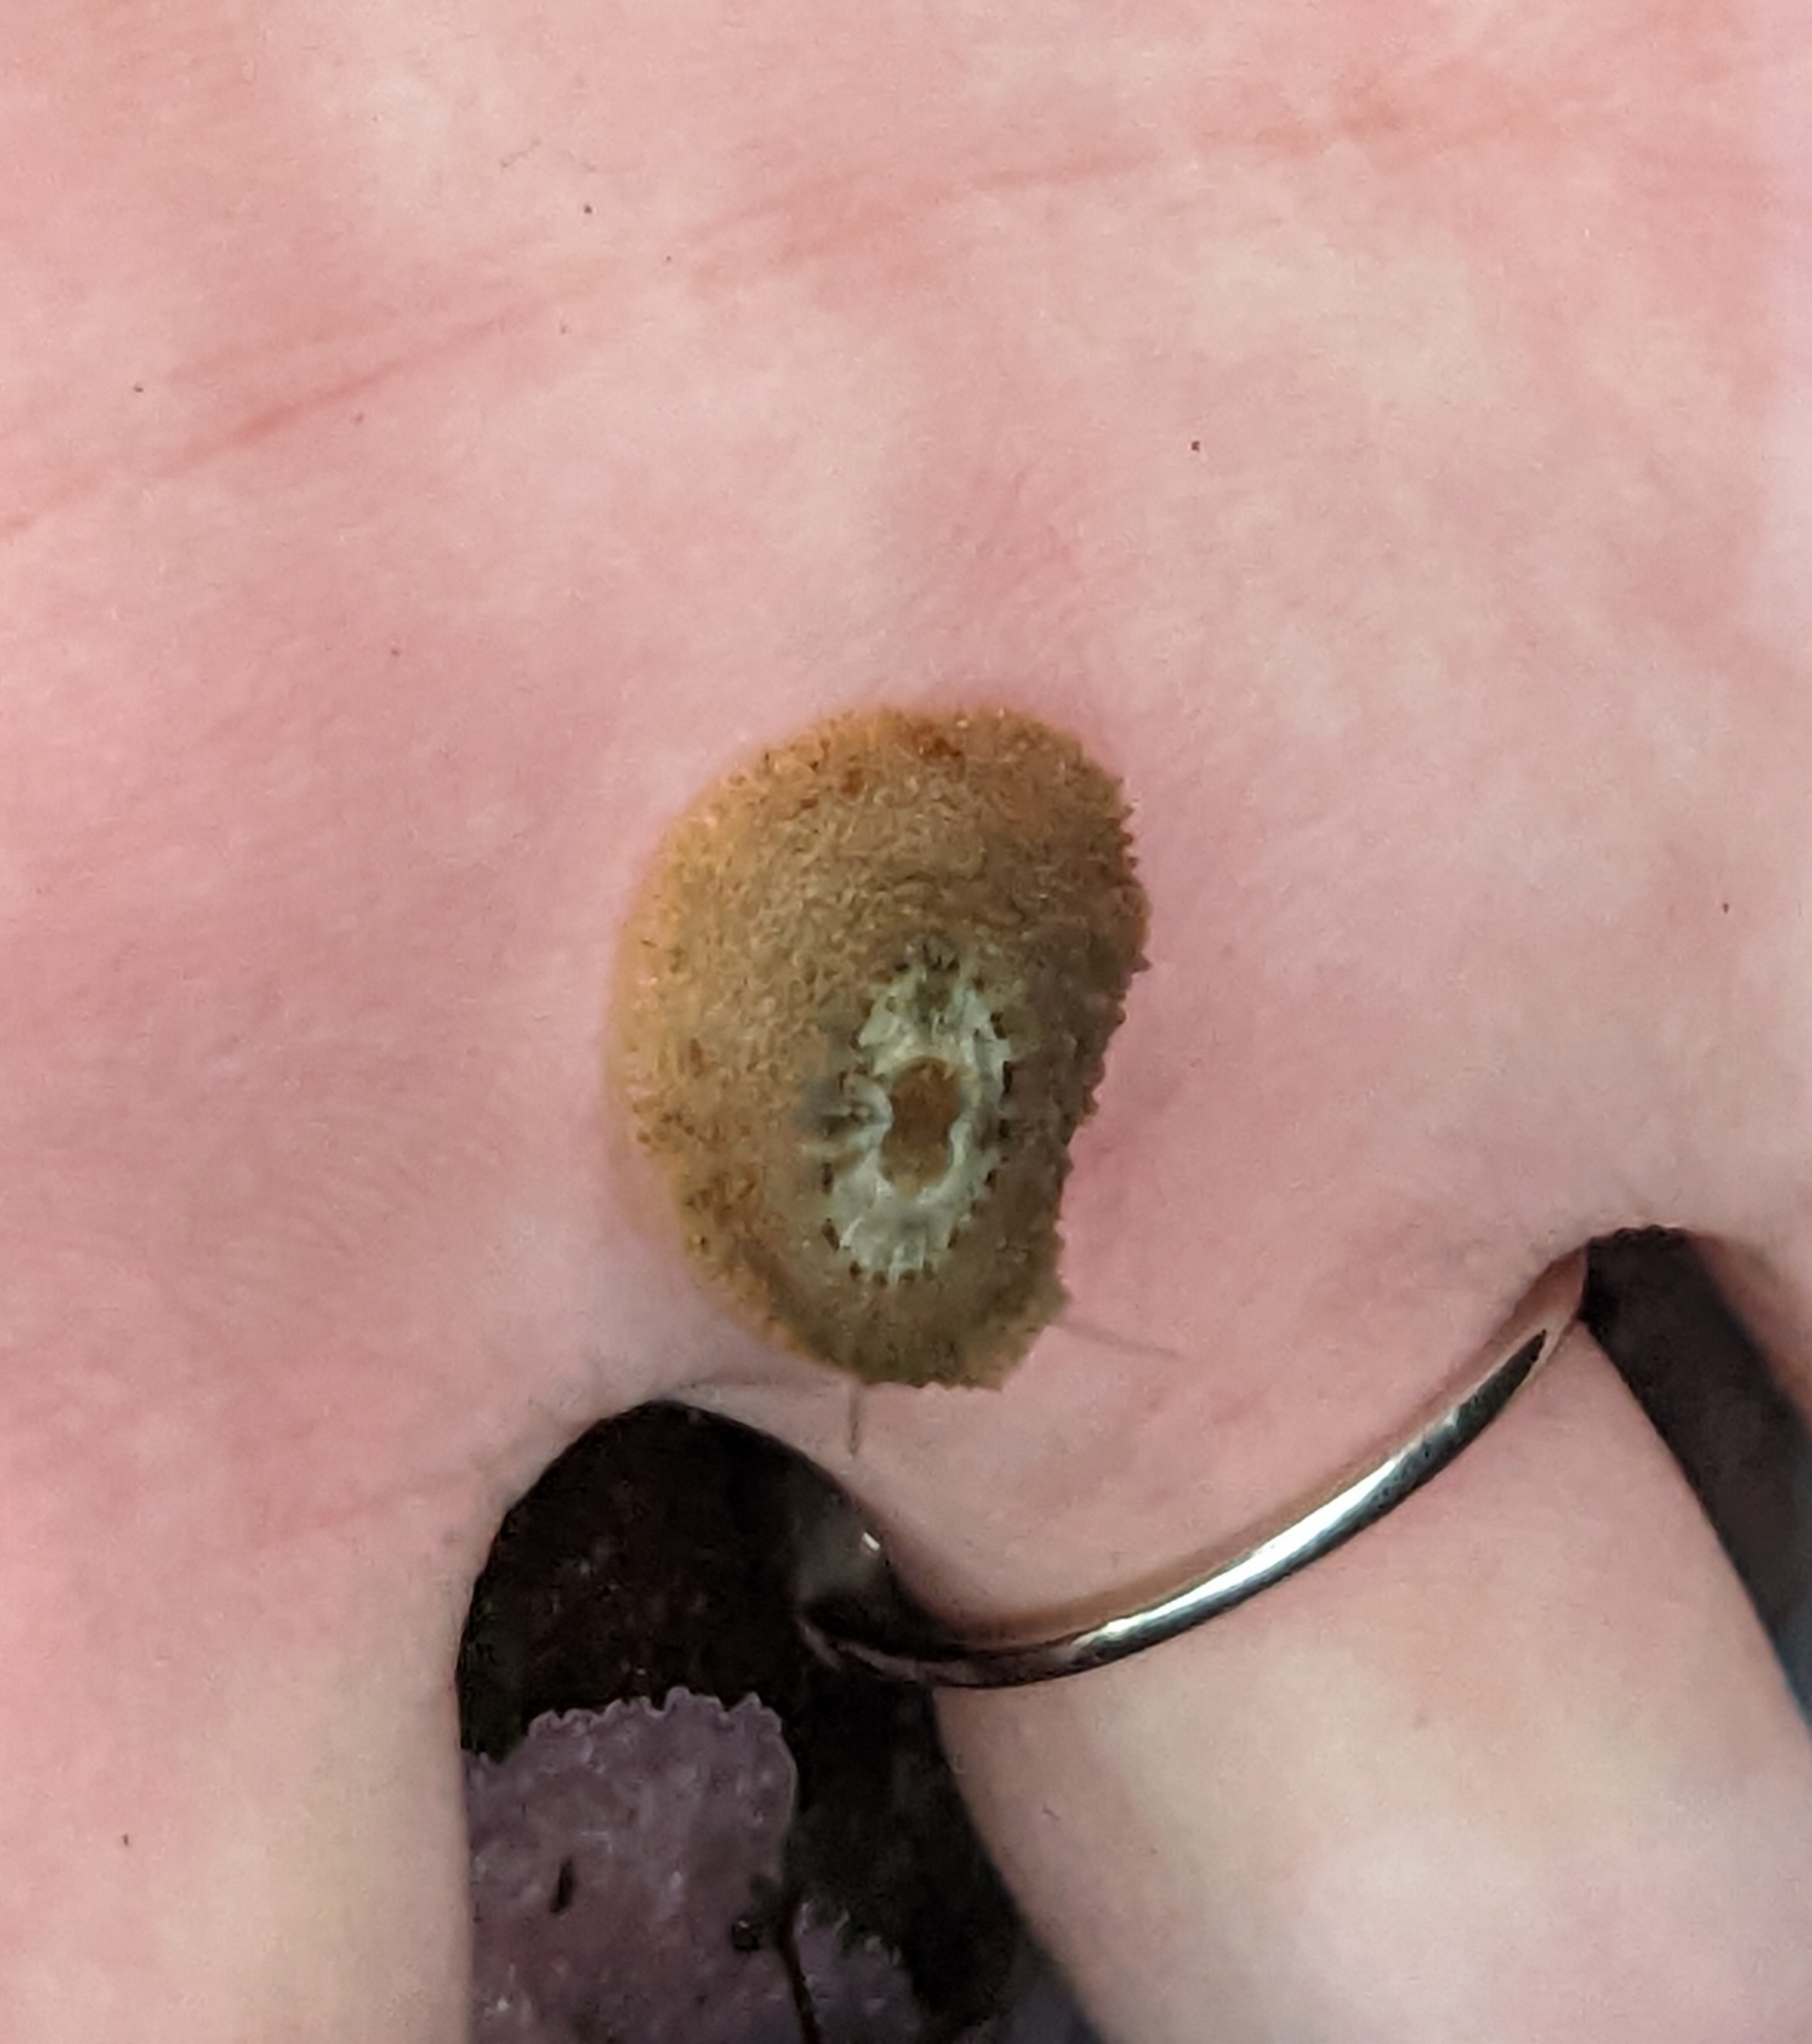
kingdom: Animalia
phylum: Mollusca
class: Gastropoda
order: Lepetellida
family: Fissurellidae
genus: Fissurellidea
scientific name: Fissurellidea bimaculata
